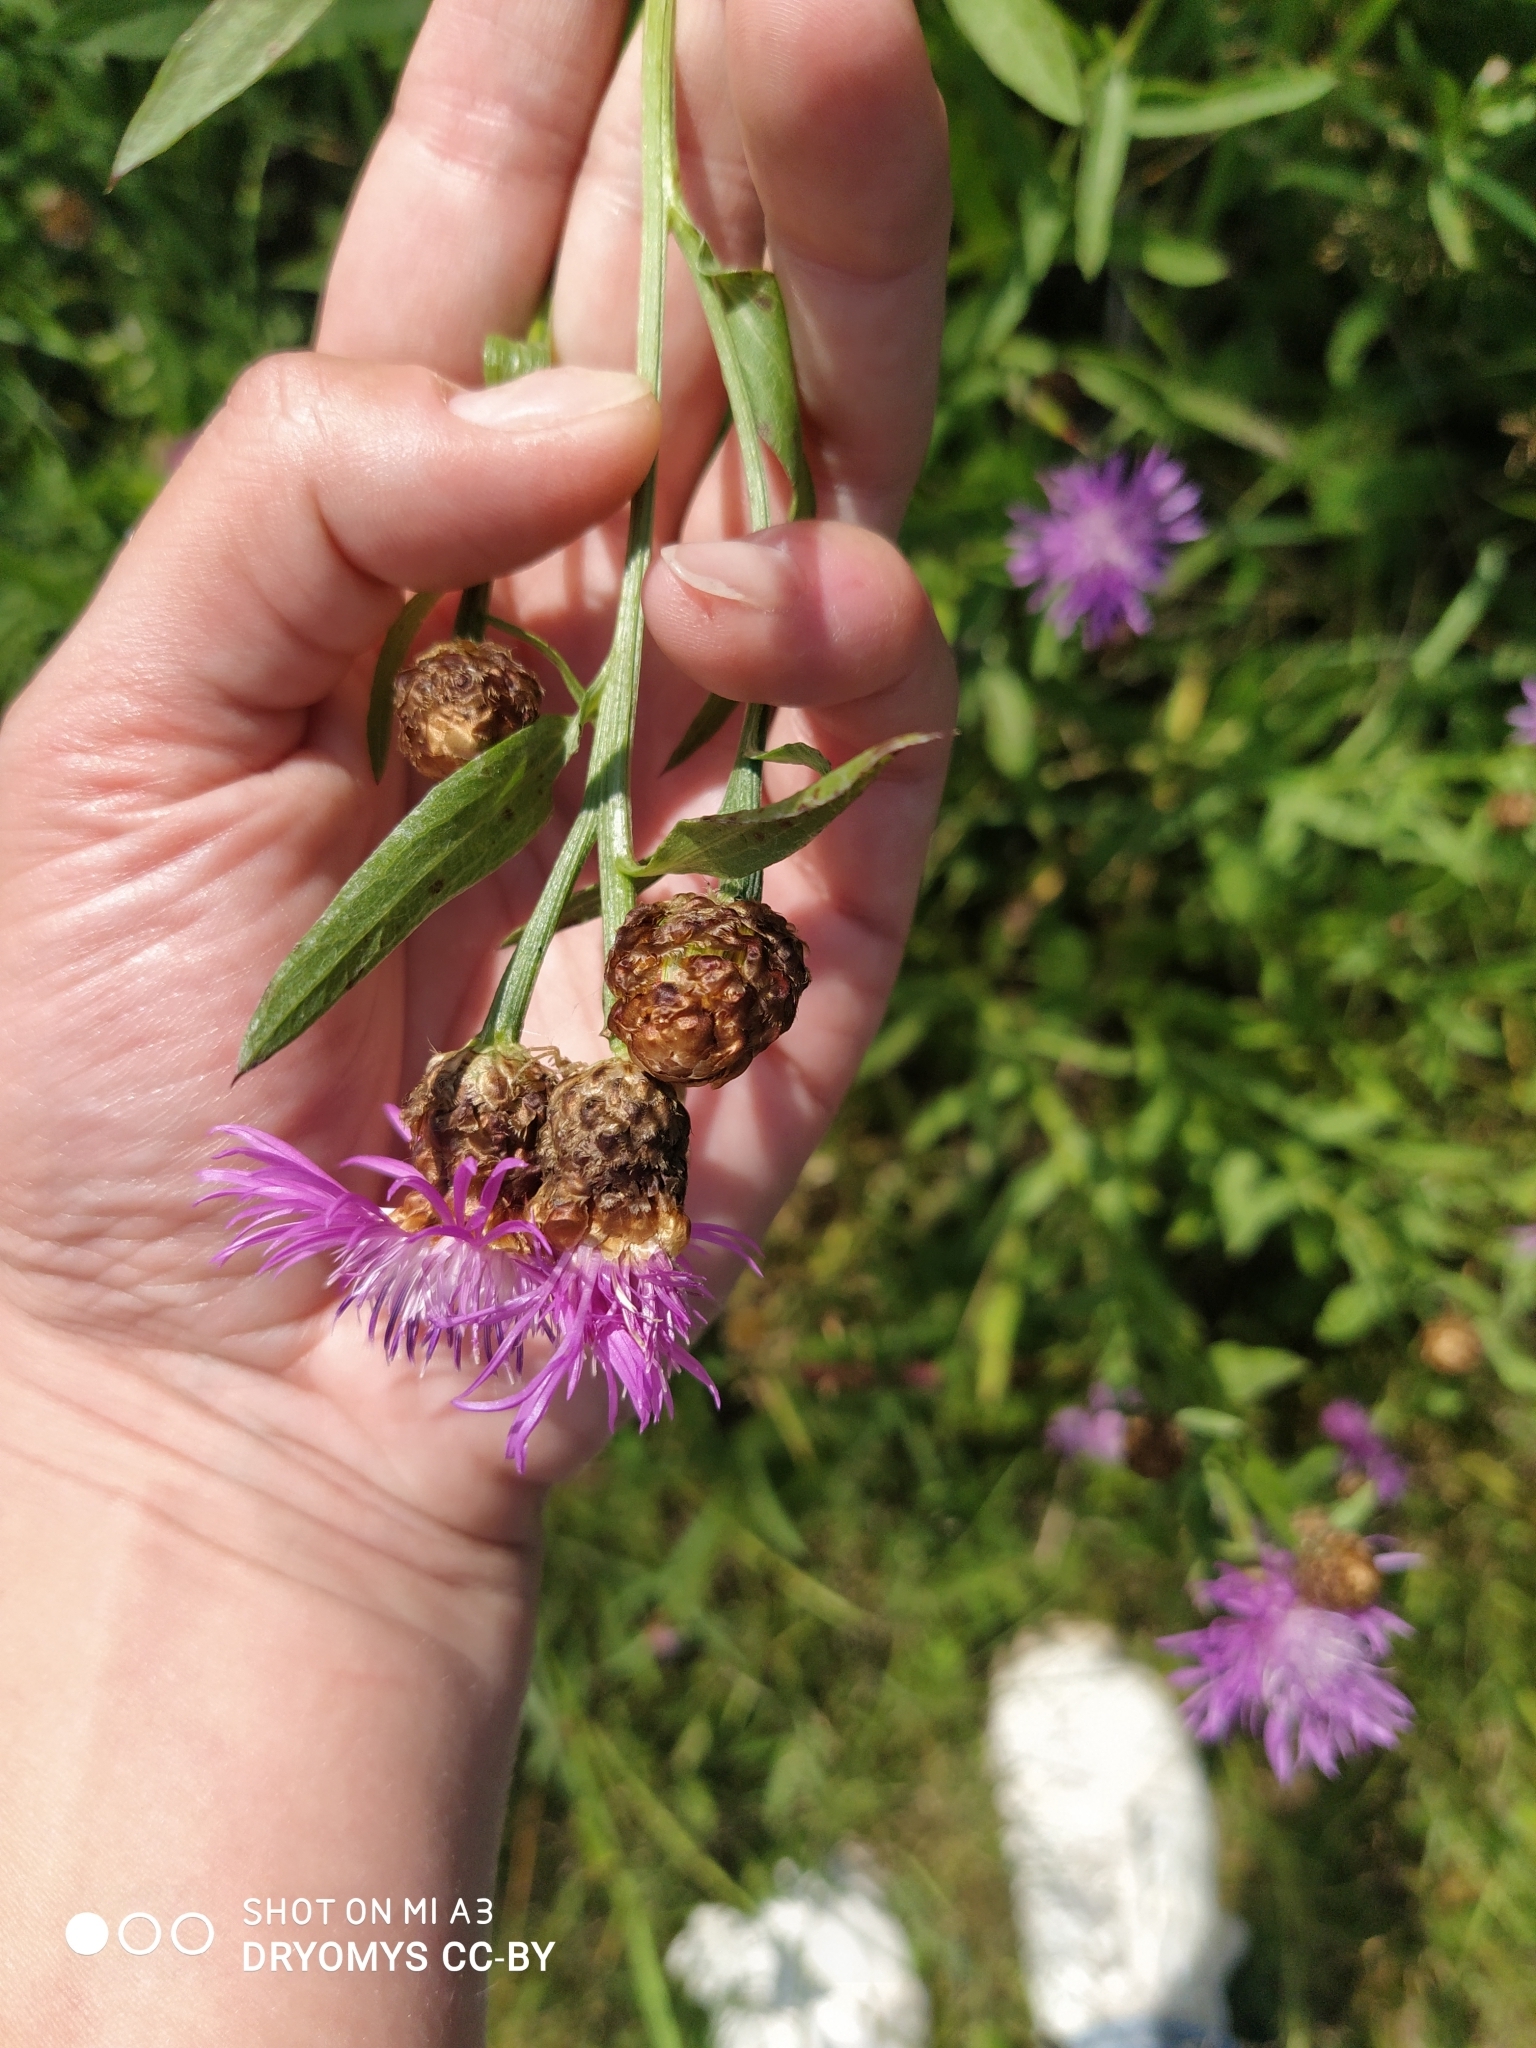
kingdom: Plantae
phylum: Tracheophyta
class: Magnoliopsida
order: Asterales
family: Asteraceae
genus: Centaurea
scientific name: Centaurea jacea
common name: Brown knapweed
